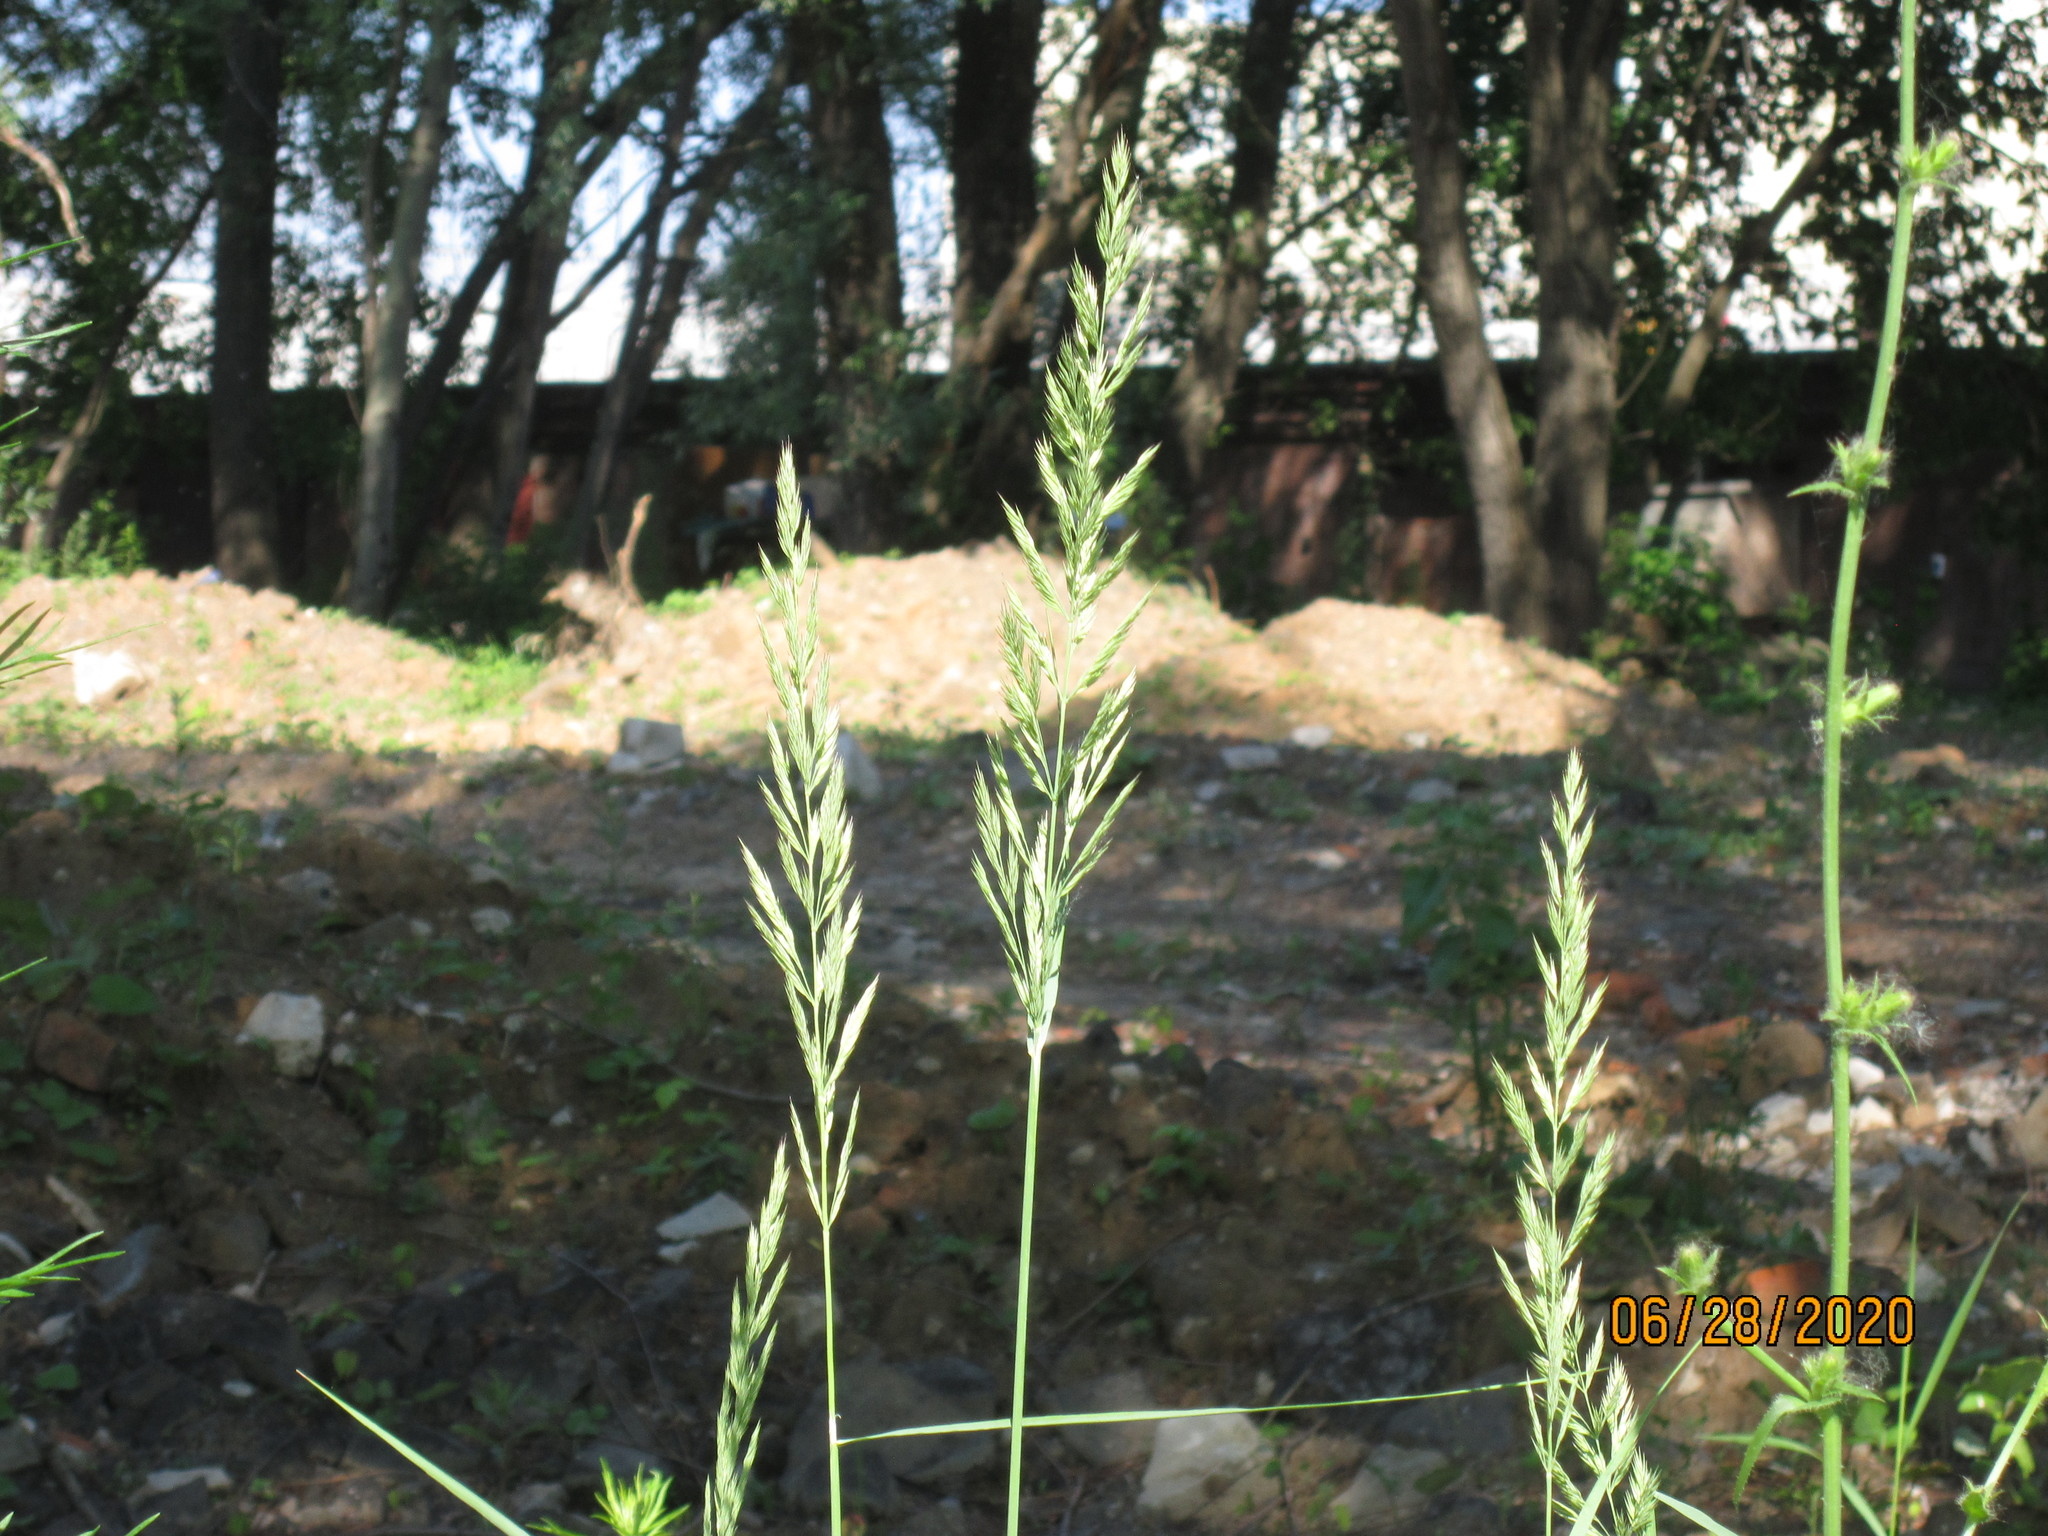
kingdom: Plantae
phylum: Tracheophyta
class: Liliopsida
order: Poales
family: Poaceae
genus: Calamagrostis
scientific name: Calamagrostis epigejos
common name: Wood small-reed
